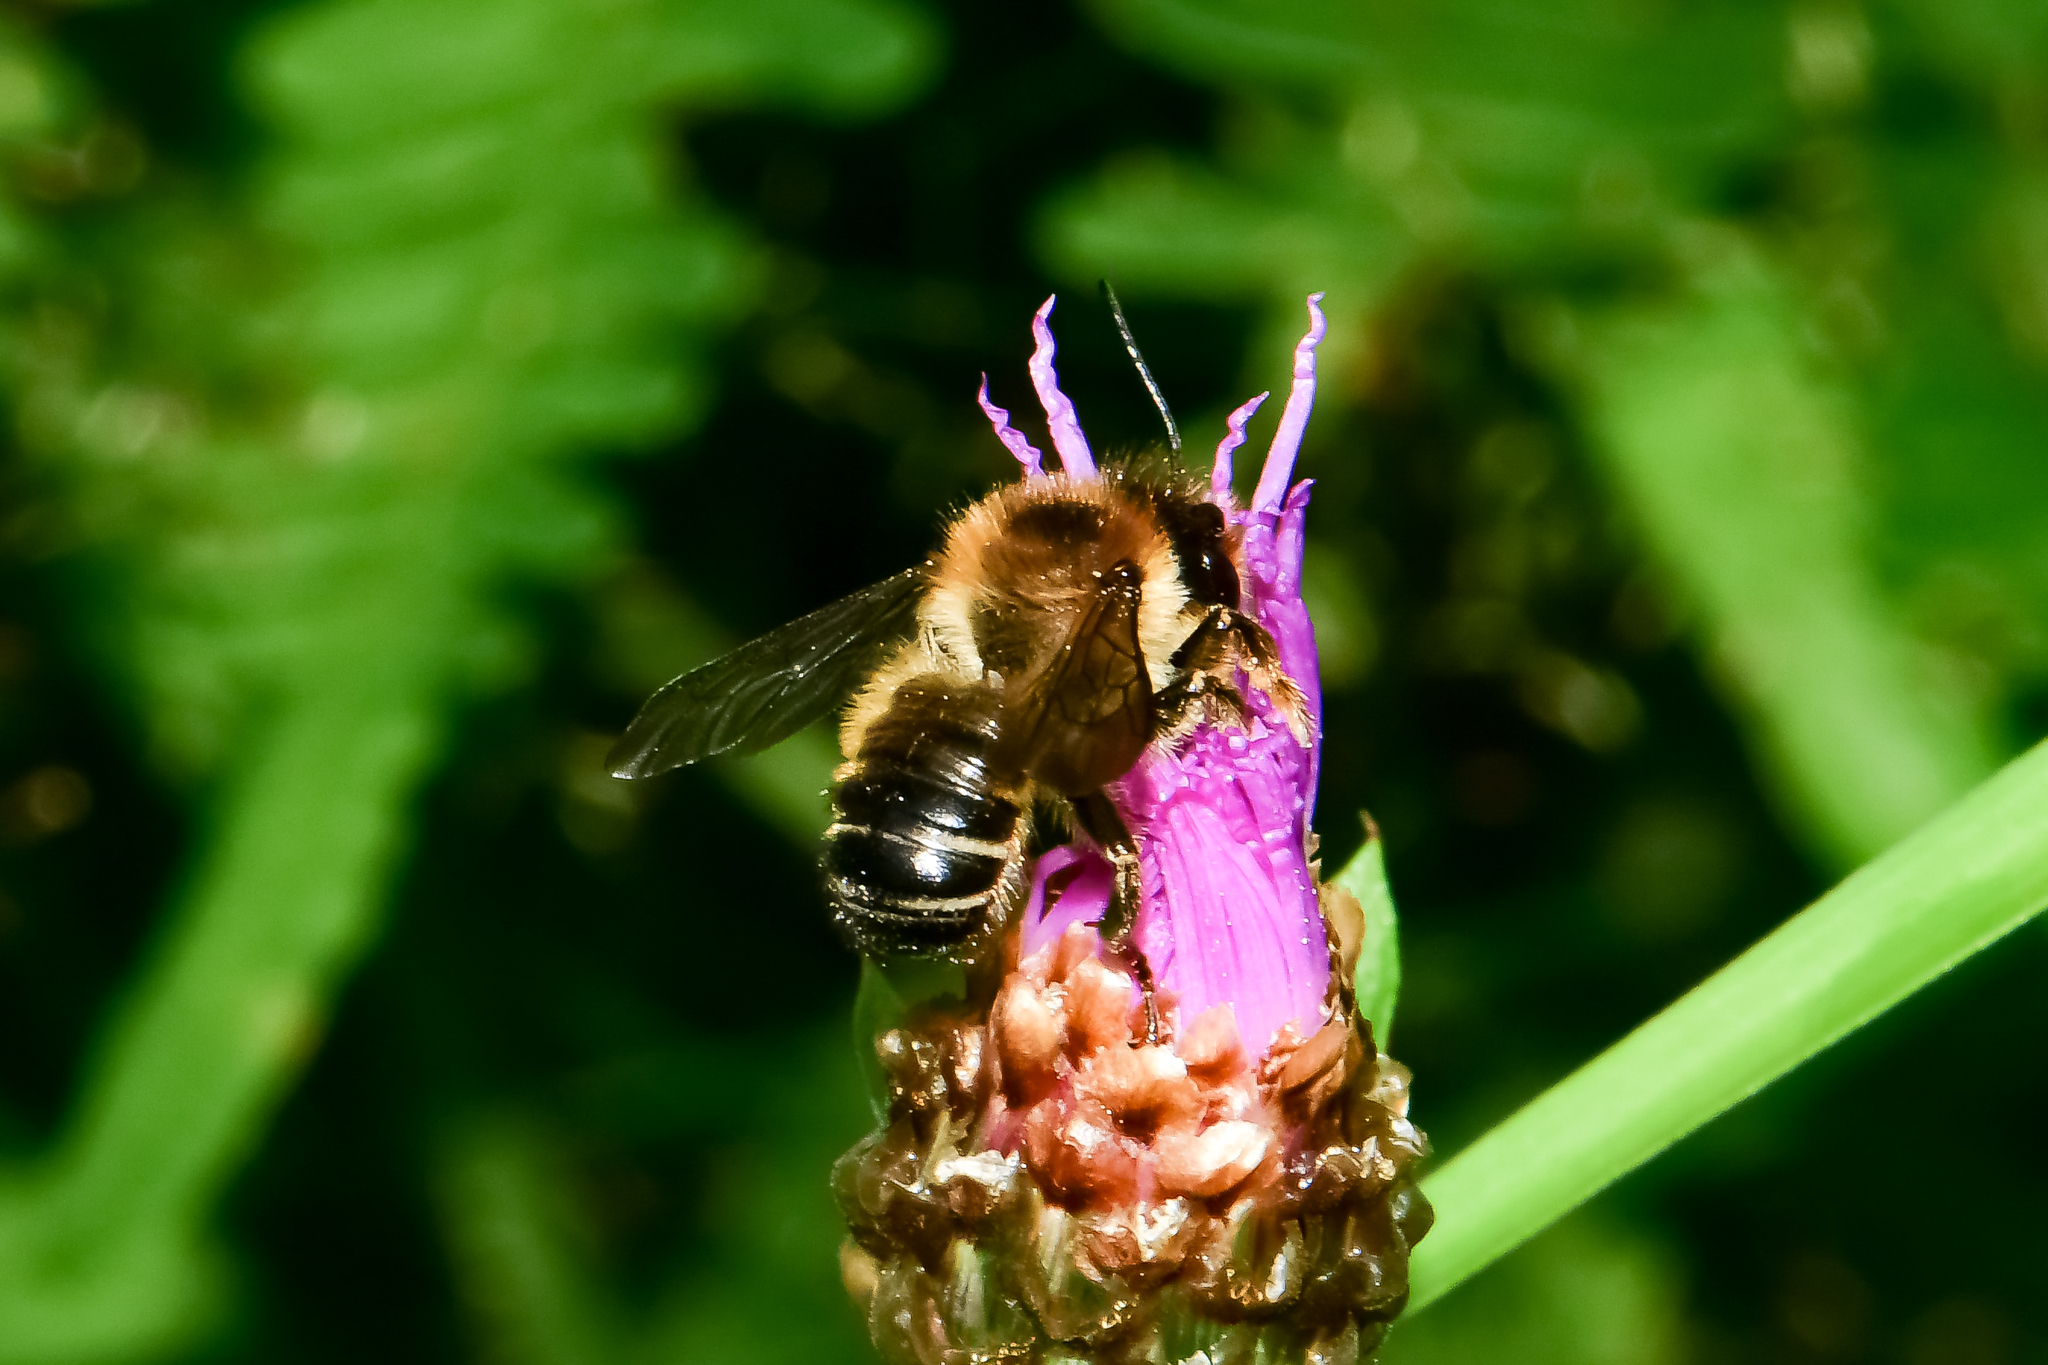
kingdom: Animalia
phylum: Arthropoda
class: Insecta
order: Hymenoptera
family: Megachilidae
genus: Megachile
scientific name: Megachile ligniseca
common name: Wood-carving leafcutter bee
